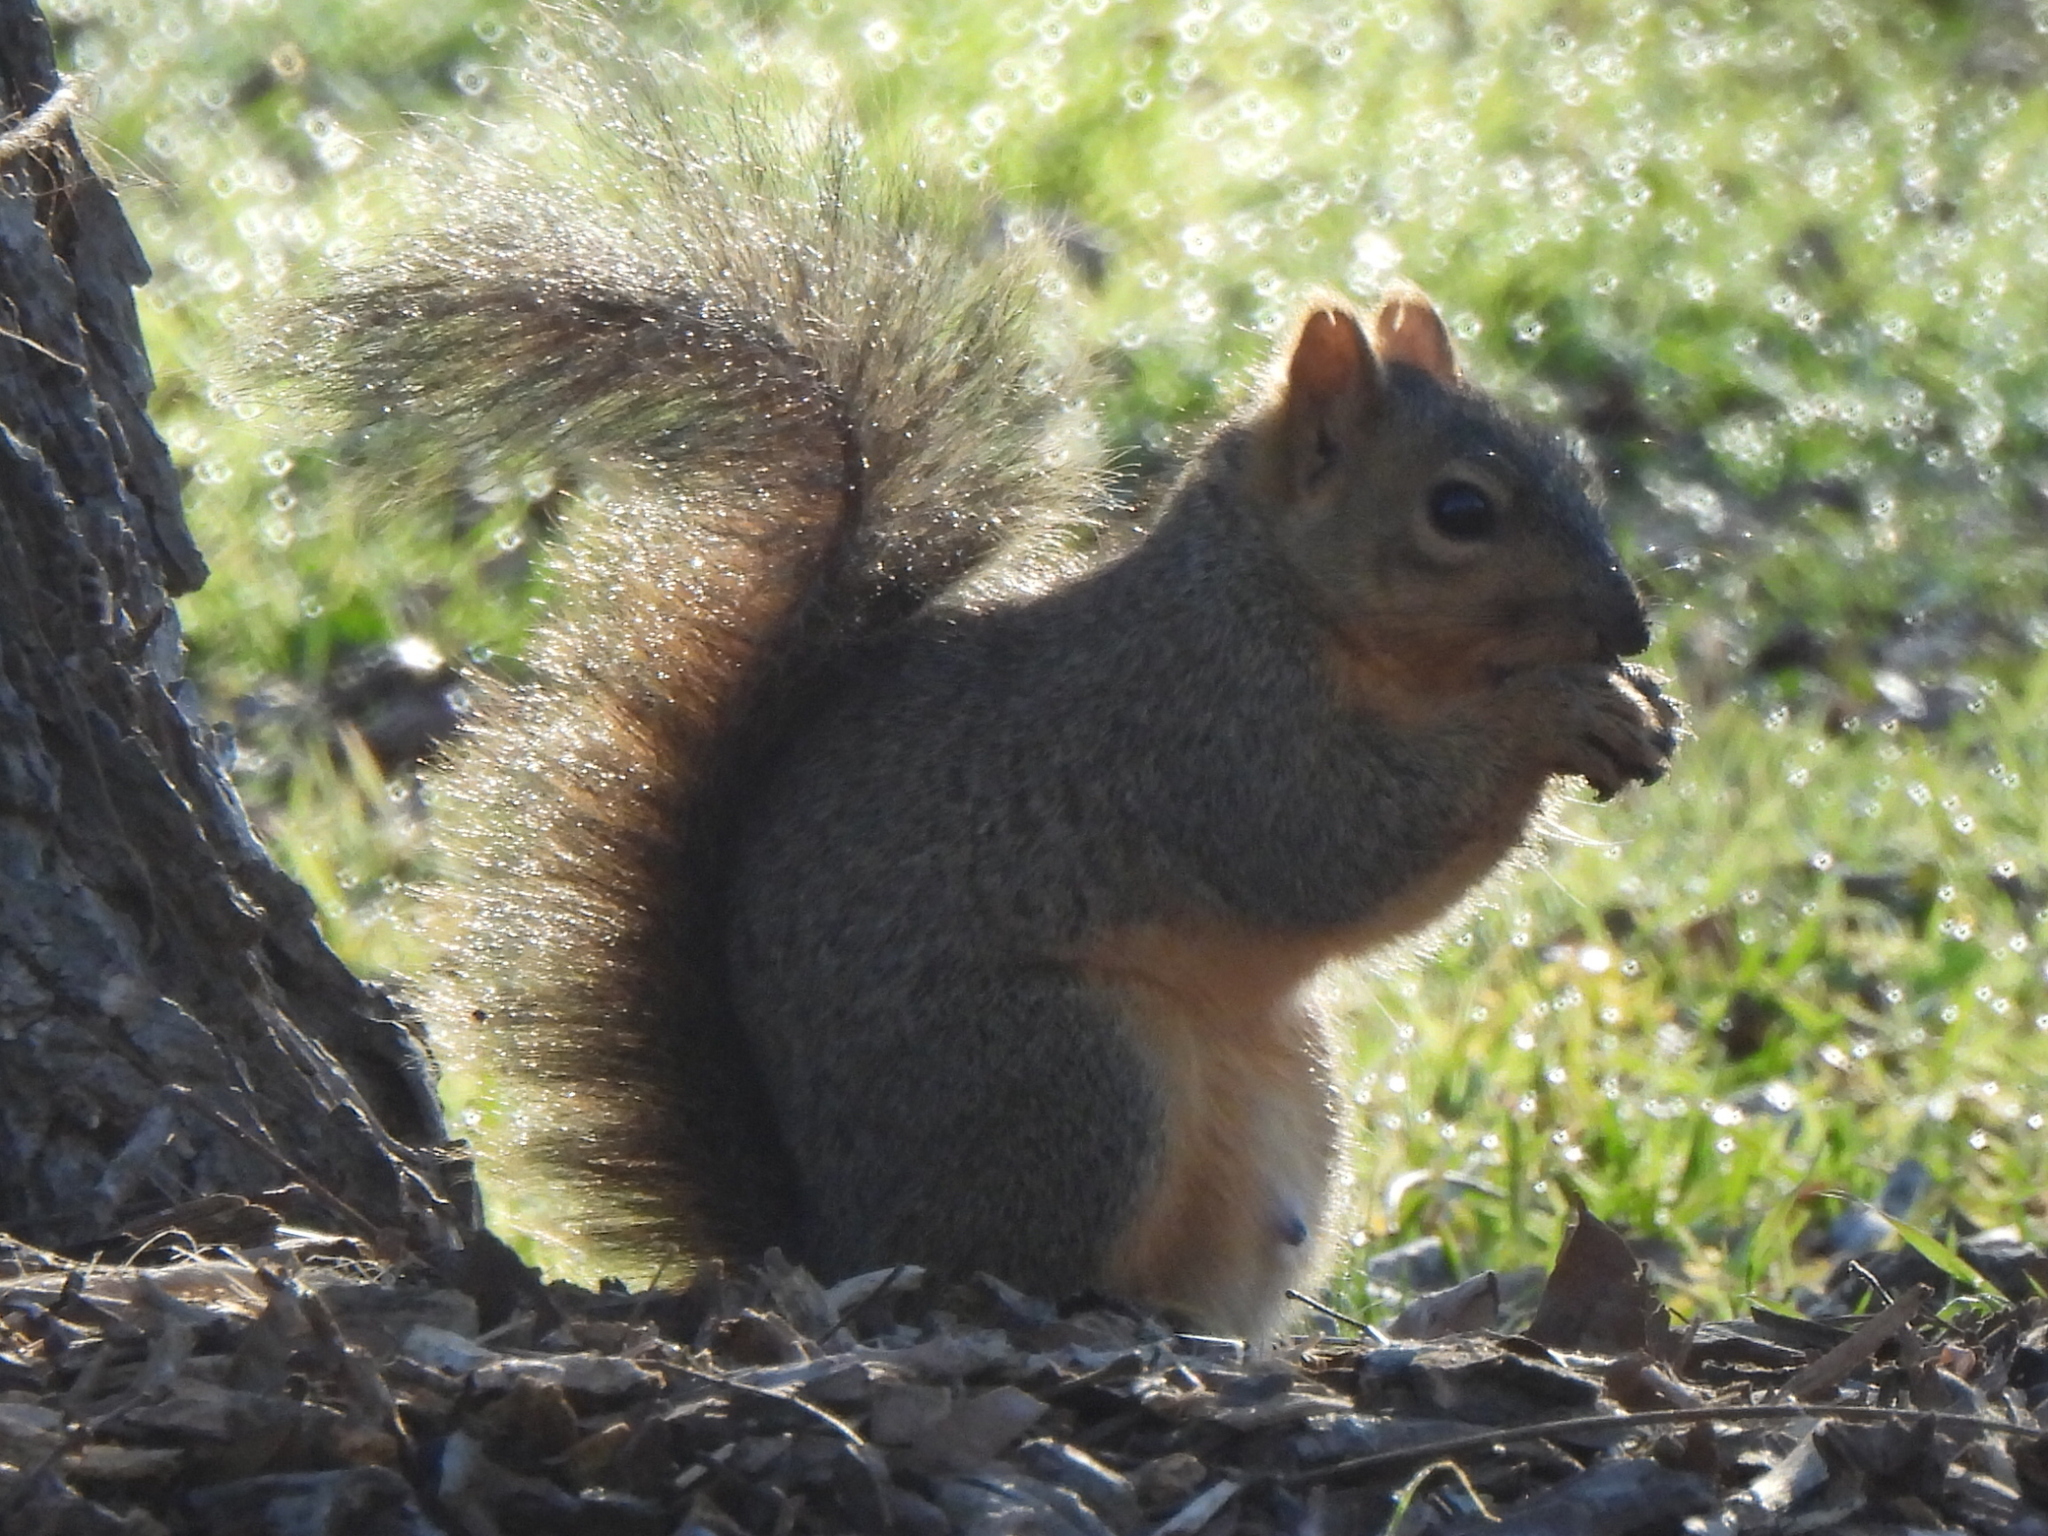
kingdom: Animalia
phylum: Chordata
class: Mammalia
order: Rodentia
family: Sciuridae
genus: Sciurus
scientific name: Sciurus niger
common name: Fox squirrel
